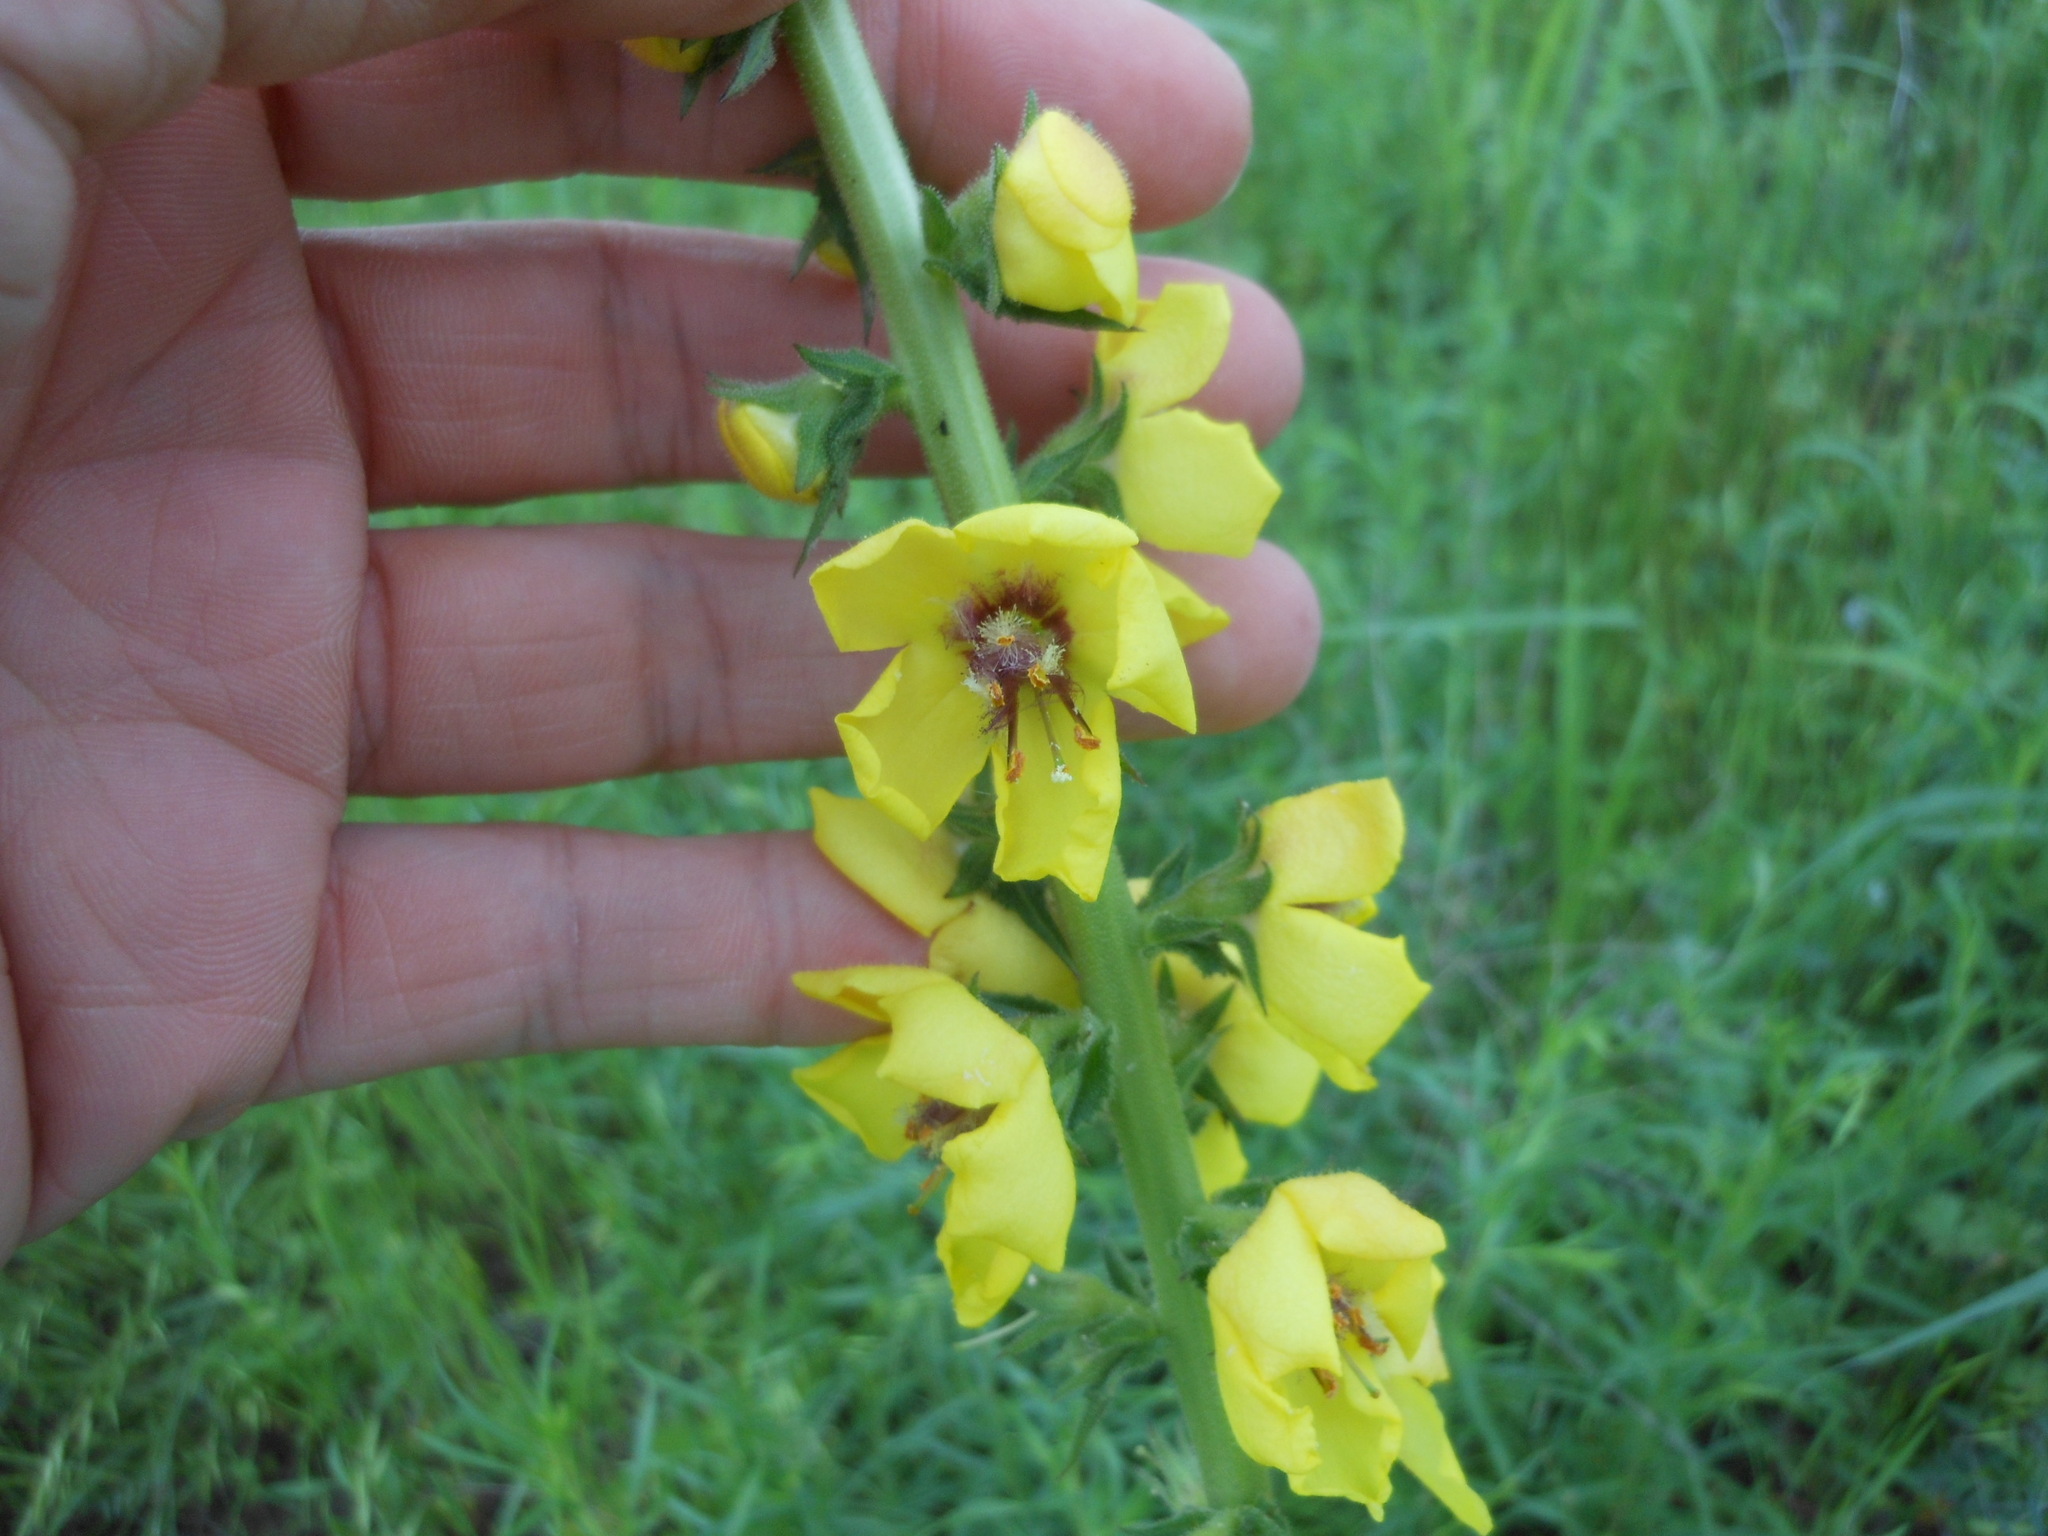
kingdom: Plantae
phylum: Tracheophyta
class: Magnoliopsida
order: Lamiales
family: Scrophulariaceae
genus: Verbascum
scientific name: Verbascum virgatum
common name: Twiggy mullein
